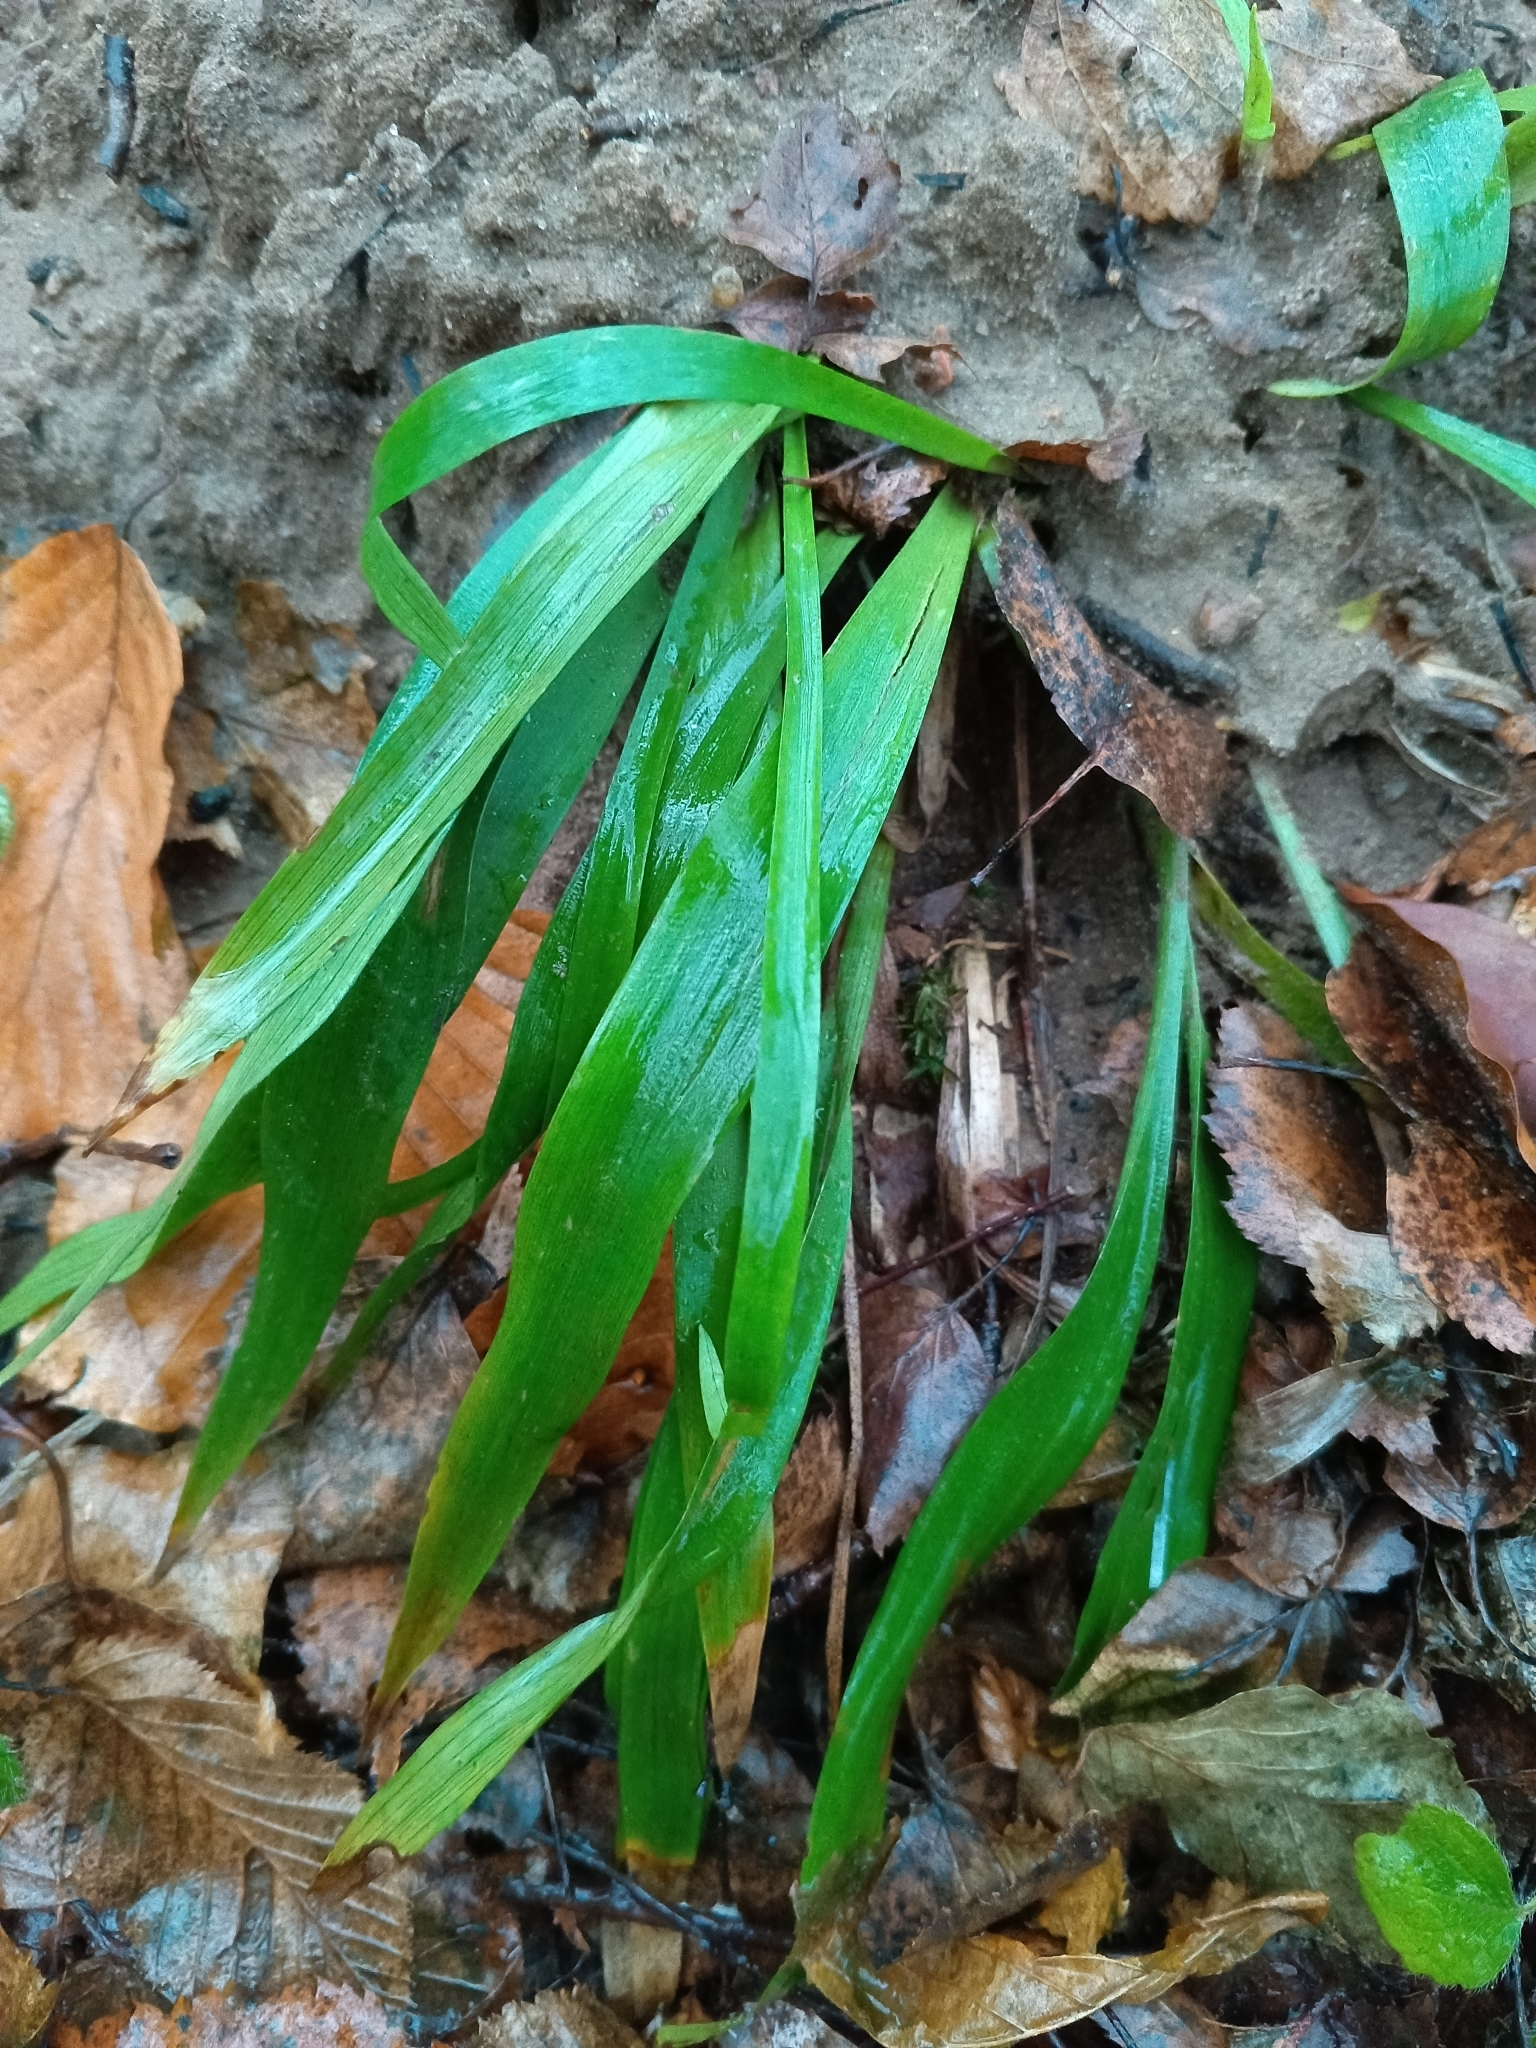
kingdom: Plantae
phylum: Tracheophyta
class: Liliopsida
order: Poales
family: Juncaceae
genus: Luzula
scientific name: Luzula pilosa
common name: Hairy wood-rush
